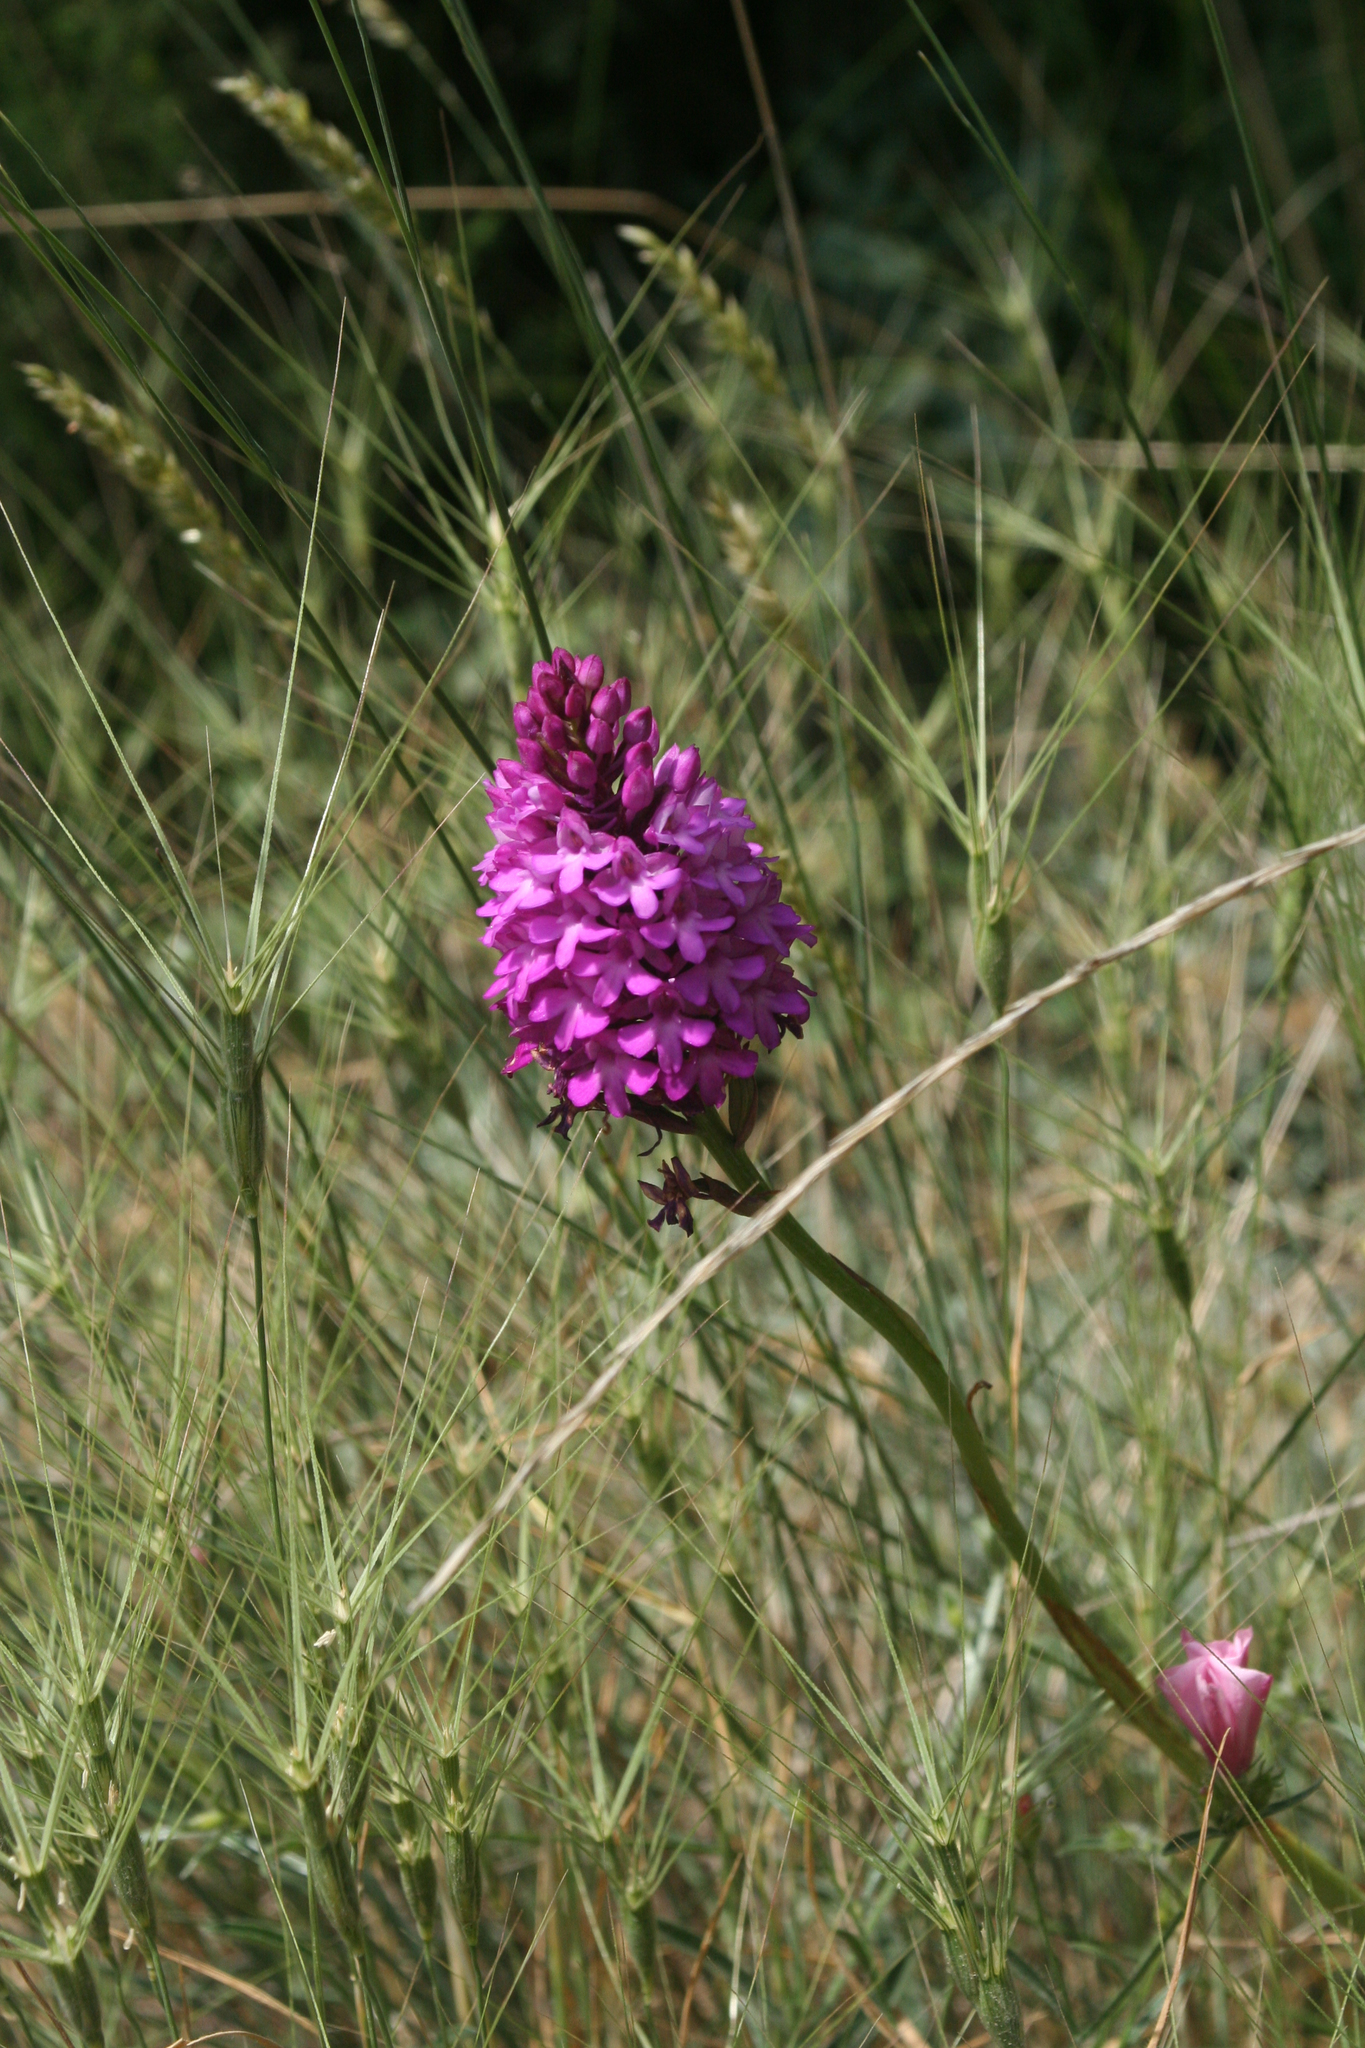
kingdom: Plantae
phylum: Tracheophyta
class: Liliopsida
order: Poales
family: Poaceae
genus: Aegilops
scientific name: Aegilops biuncialis
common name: Mediterranean aegilops
